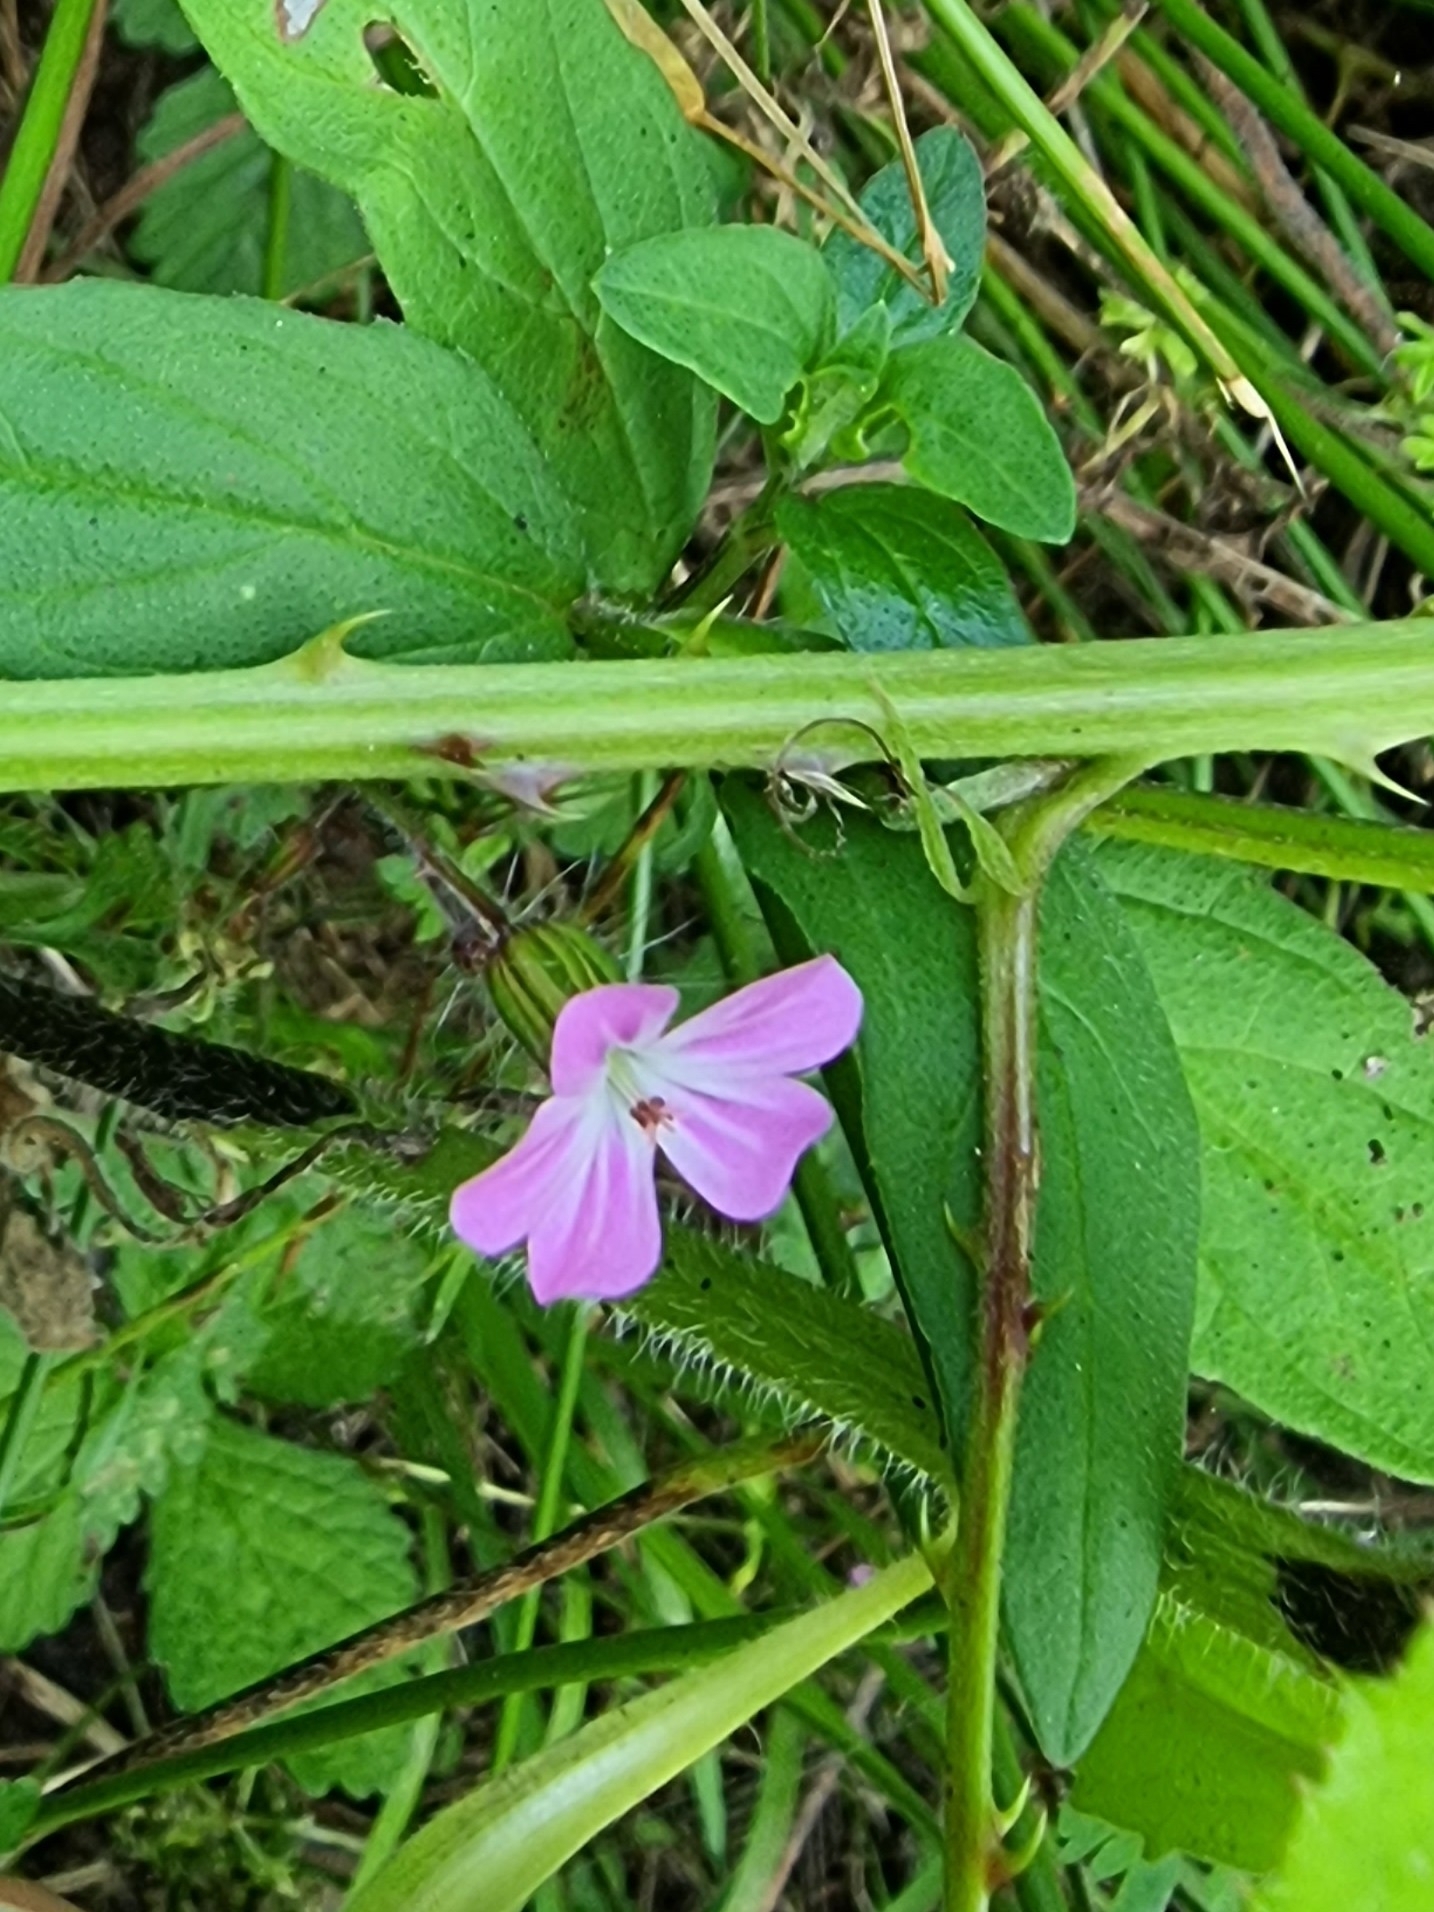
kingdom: Plantae
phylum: Tracheophyta
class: Magnoliopsida
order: Geraniales
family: Geraniaceae
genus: Geranium
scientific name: Geranium robertianum
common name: Herb-robert
